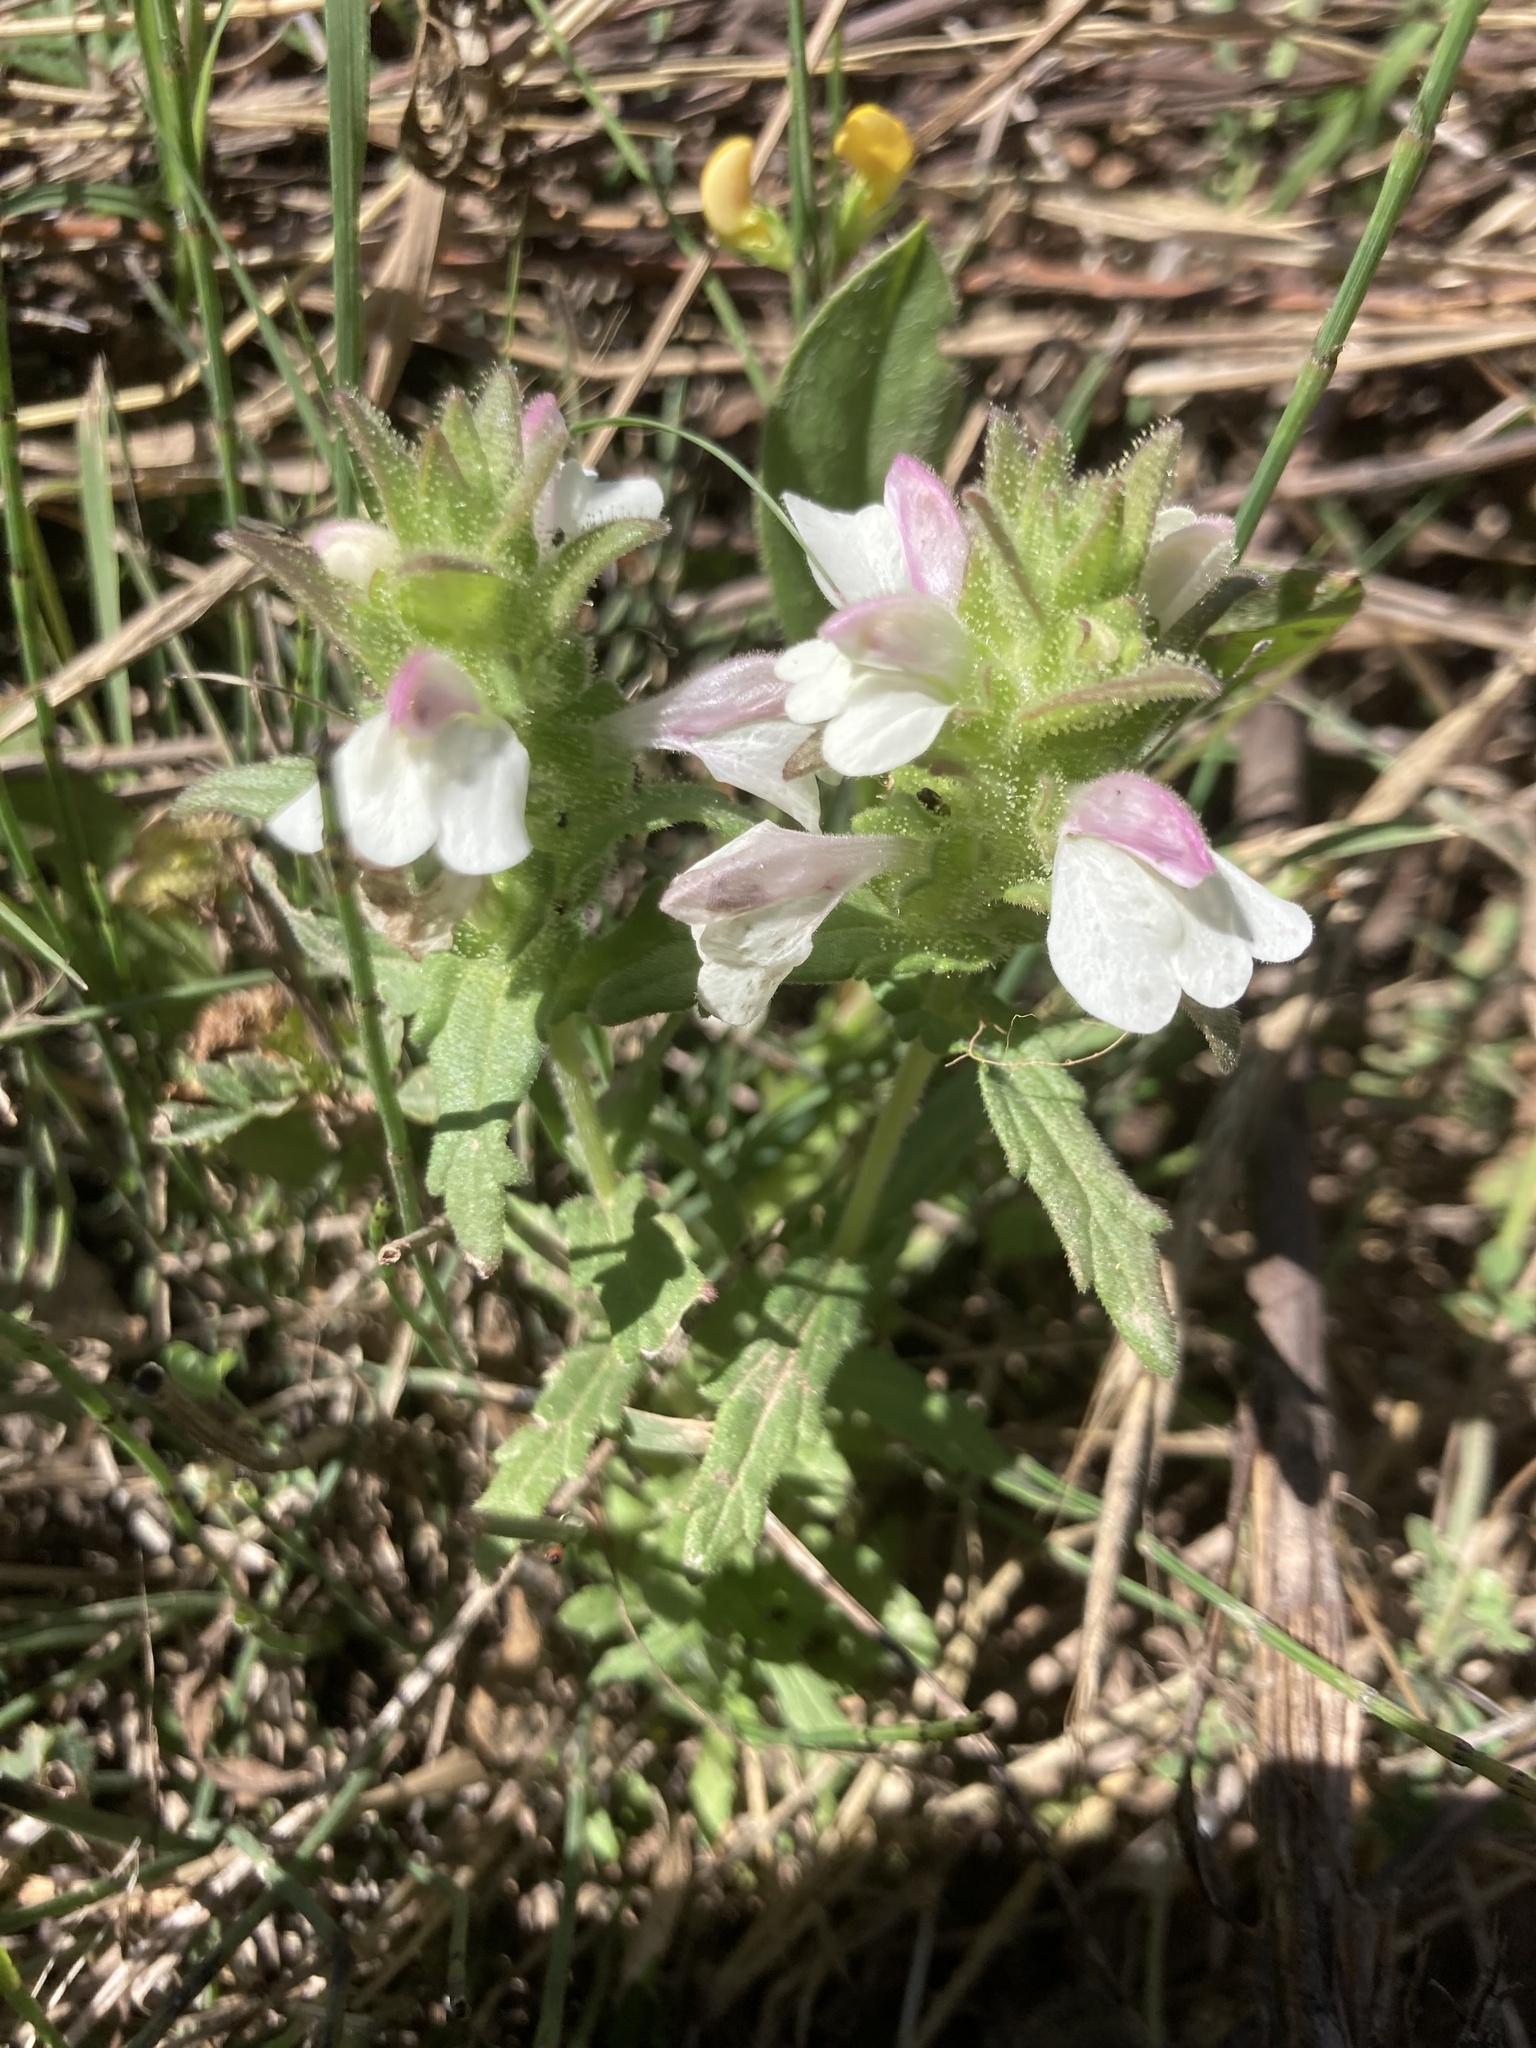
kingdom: Plantae
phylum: Tracheophyta
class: Magnoliopsida
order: Lamiales
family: Orobanchaceae
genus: Bellardia
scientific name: Bellardia trixago
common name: Mediterranean lineseed
